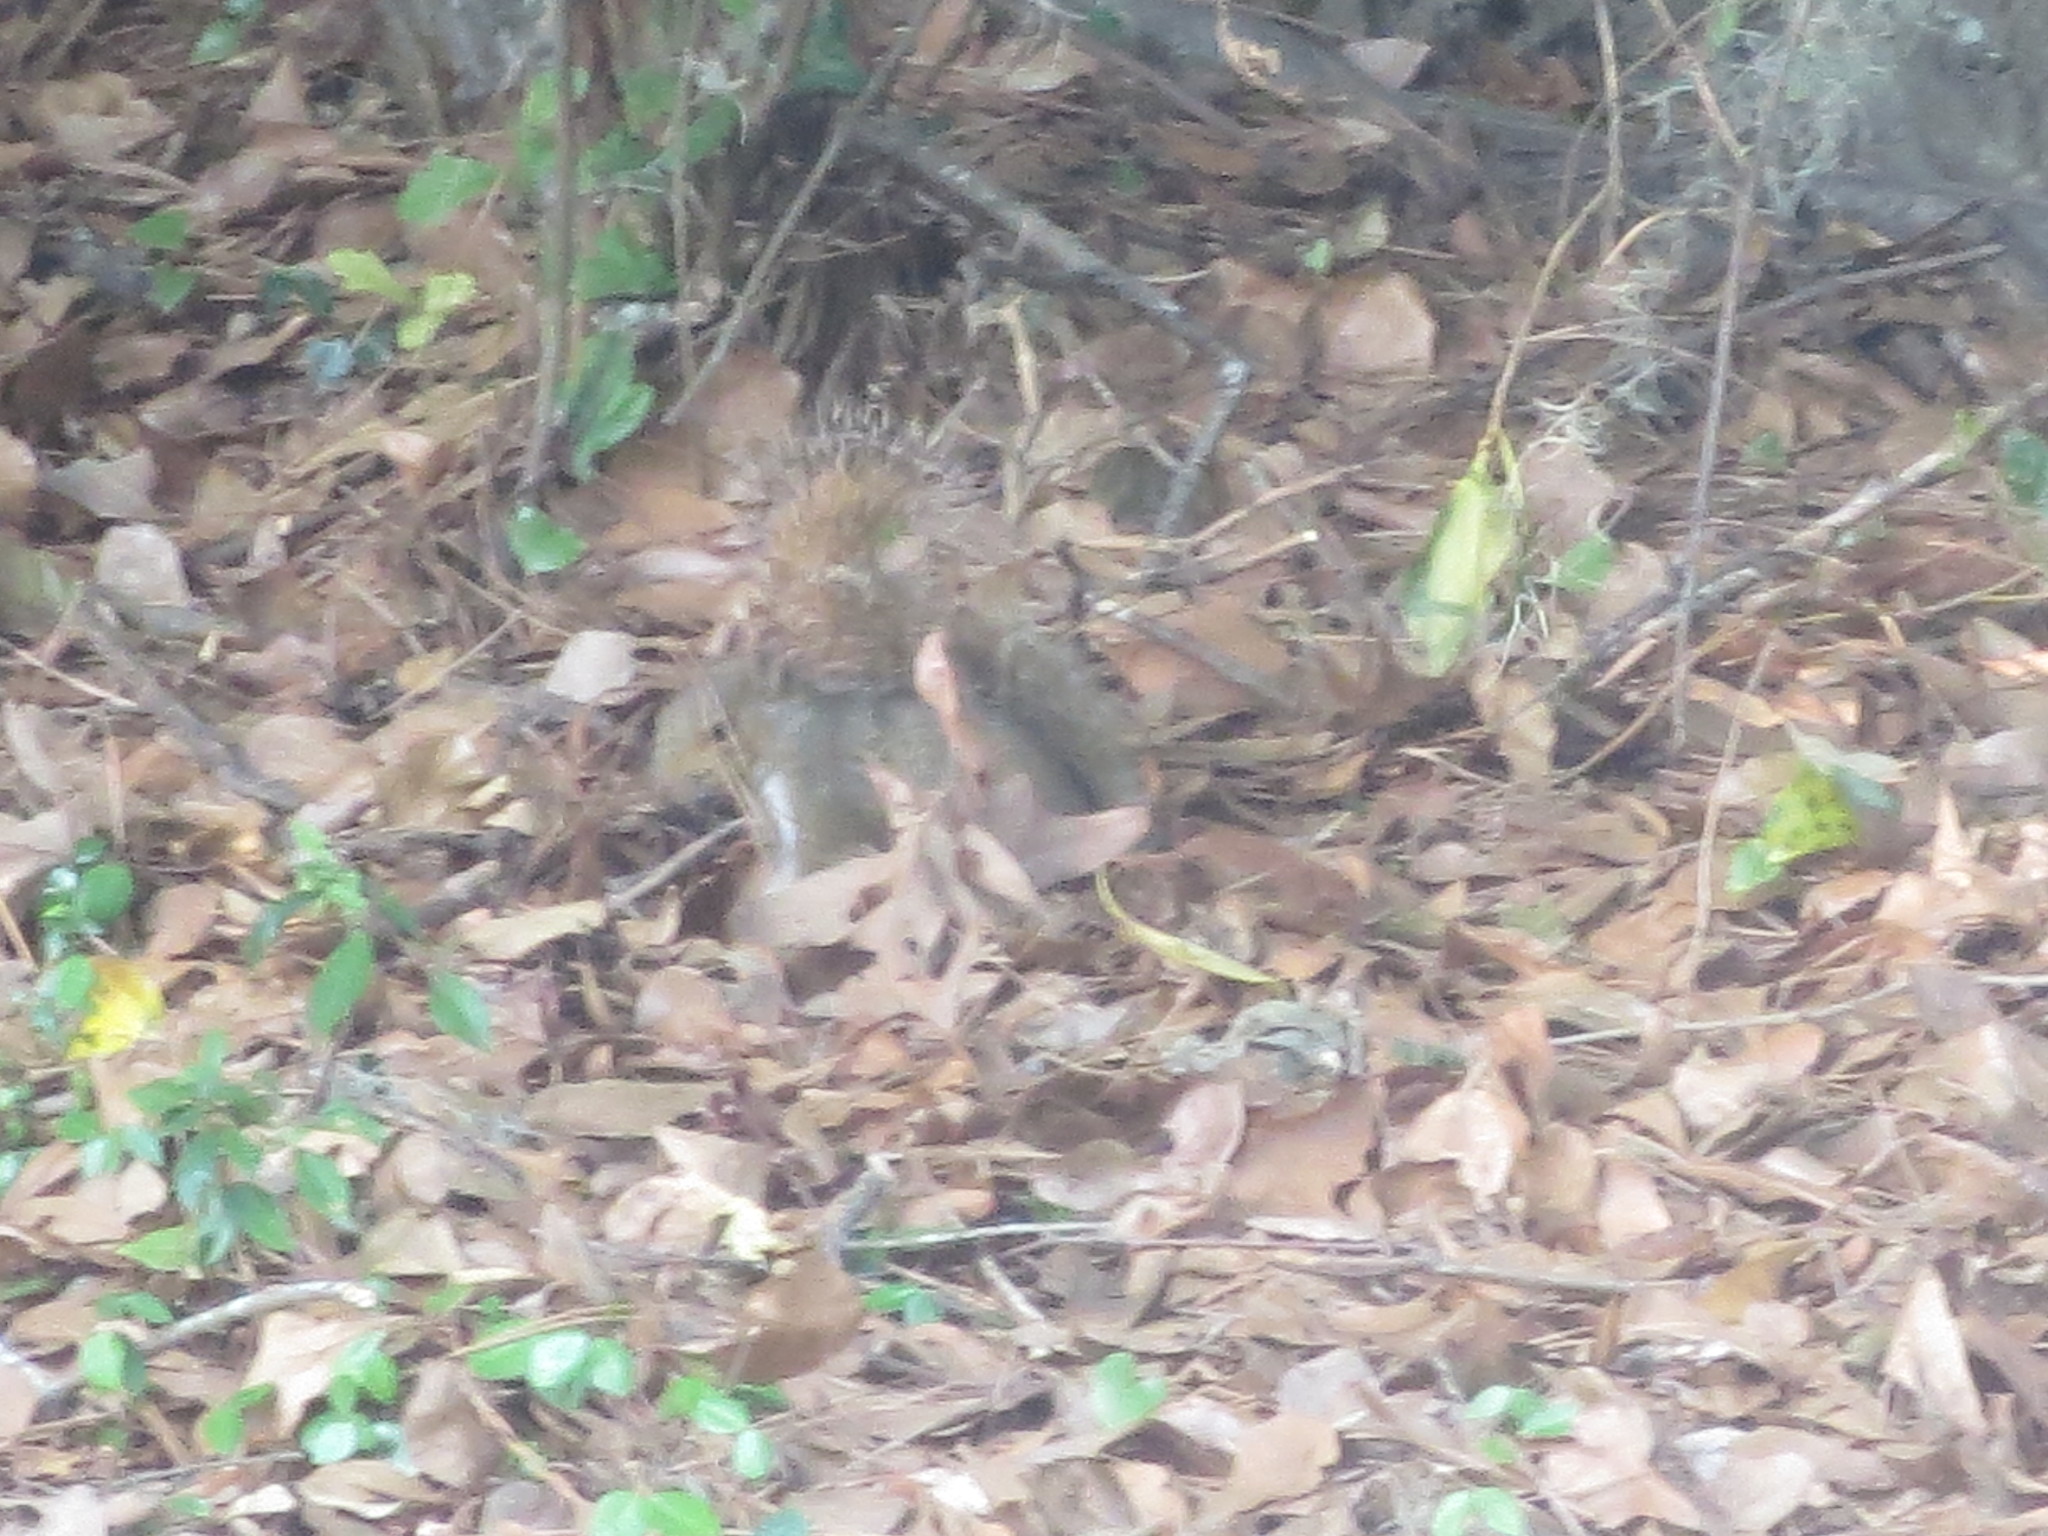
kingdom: Animalia
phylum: Chordata
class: Mammalia
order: Rodentia
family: Sciuridae
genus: Sciurus
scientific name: Sciurus carolinensis
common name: Eastern gray squirrel
